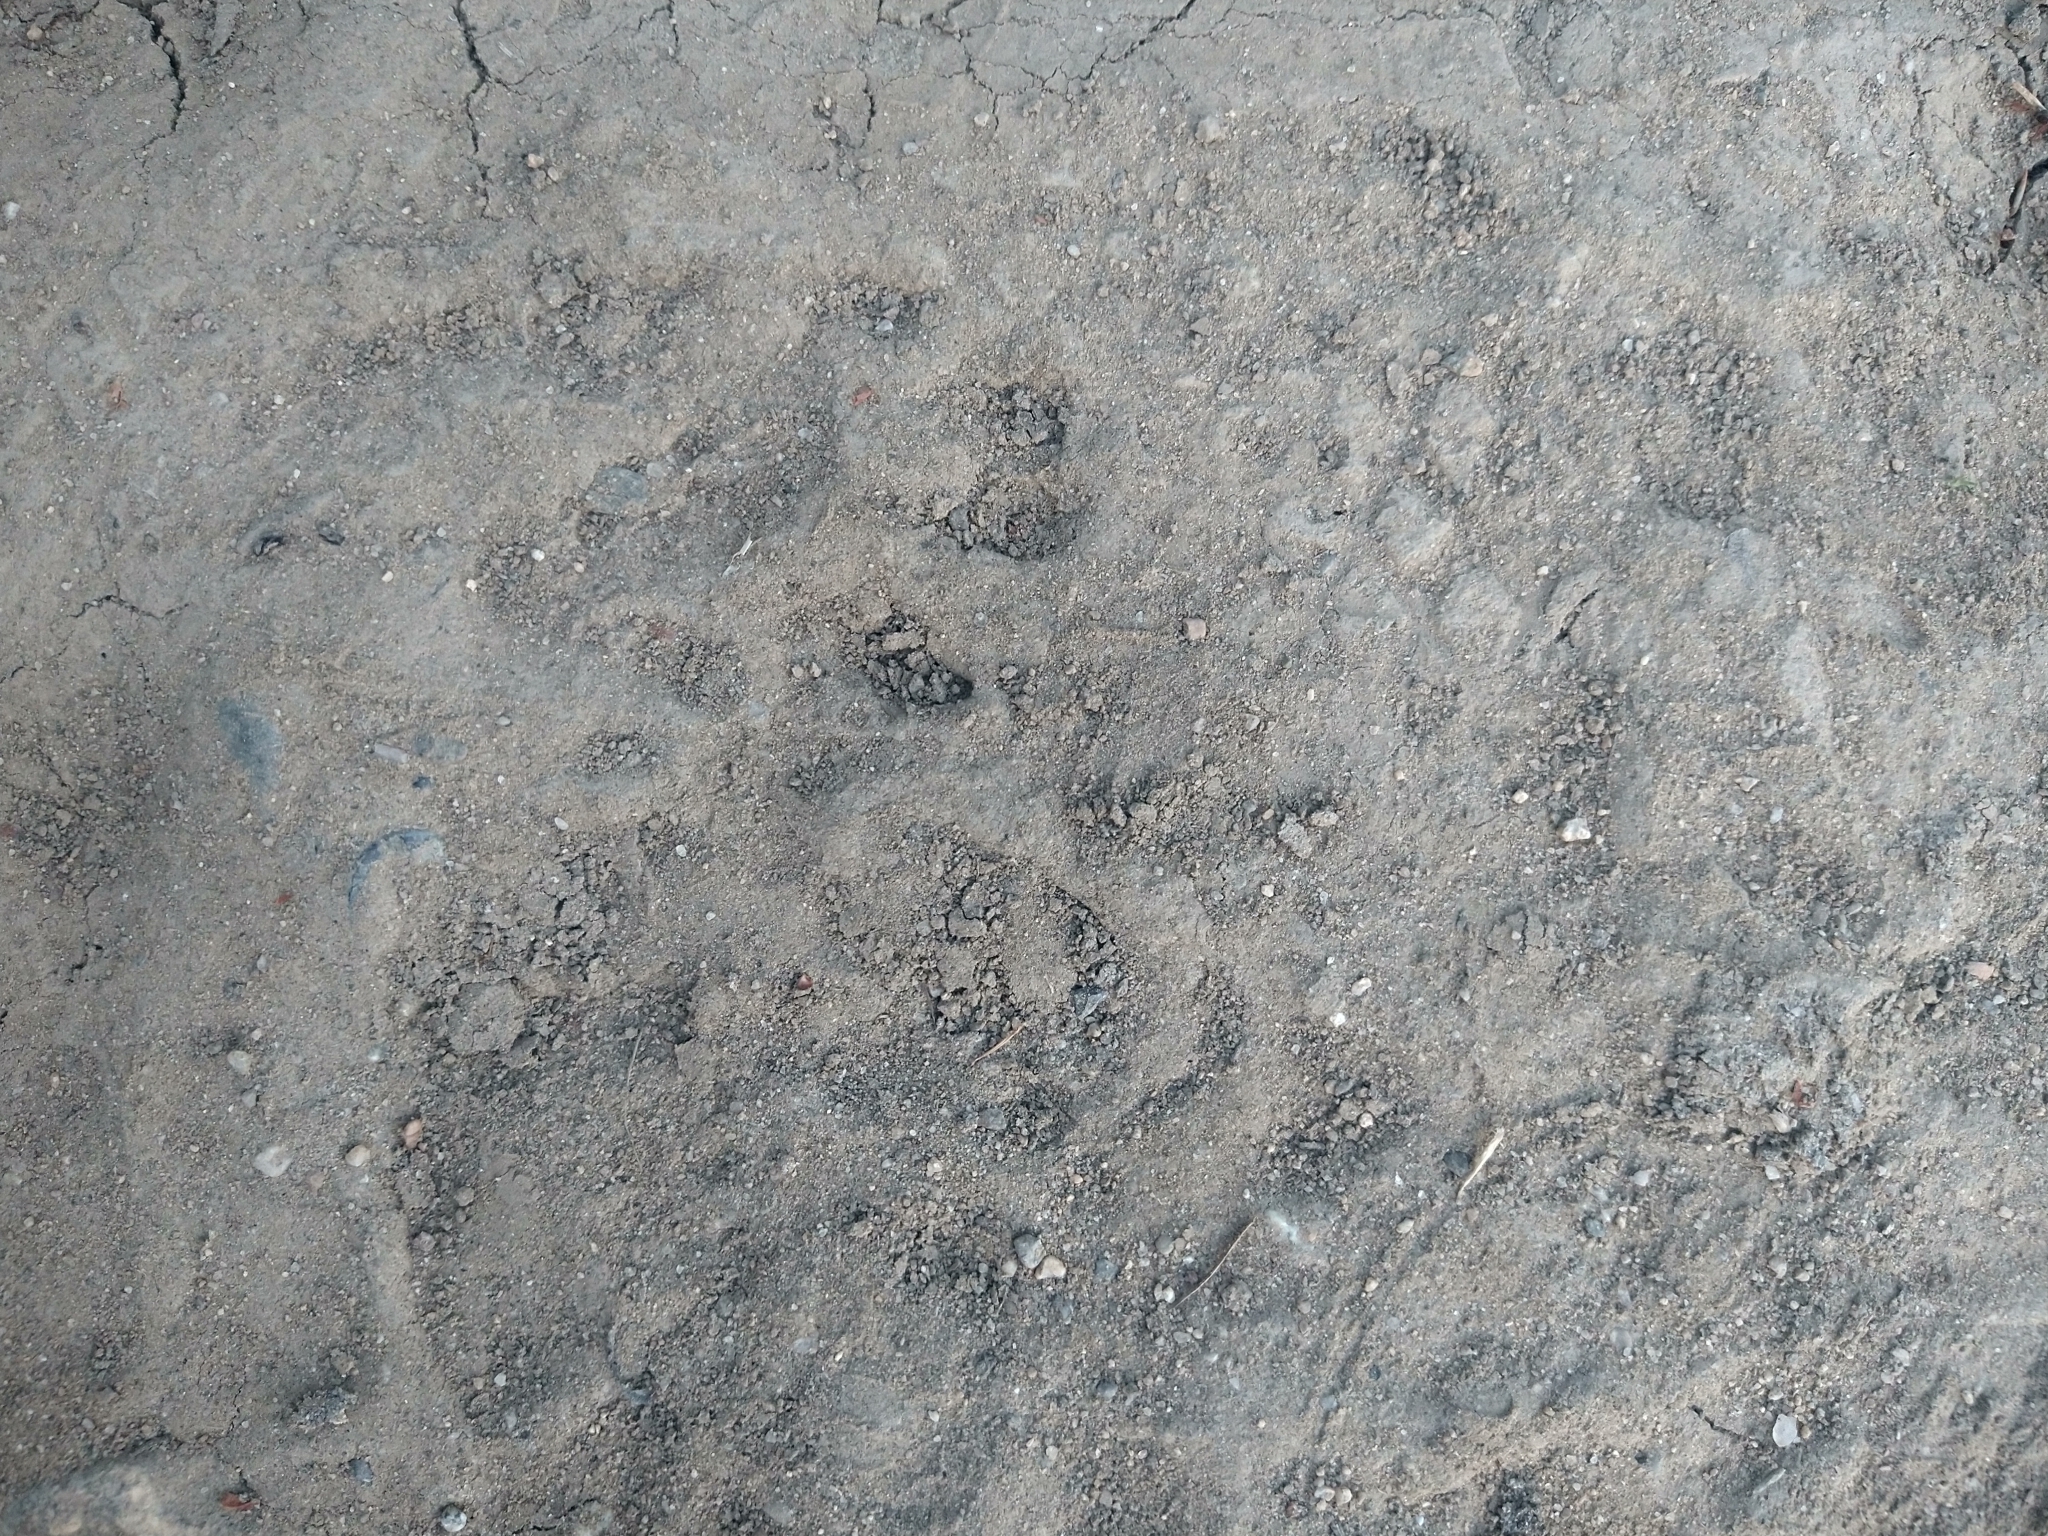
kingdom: Animalia
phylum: Chordata
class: Mammalia
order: Carnivora
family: Procyonidae
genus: Procyon
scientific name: Procyon lotor
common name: Raccoon
